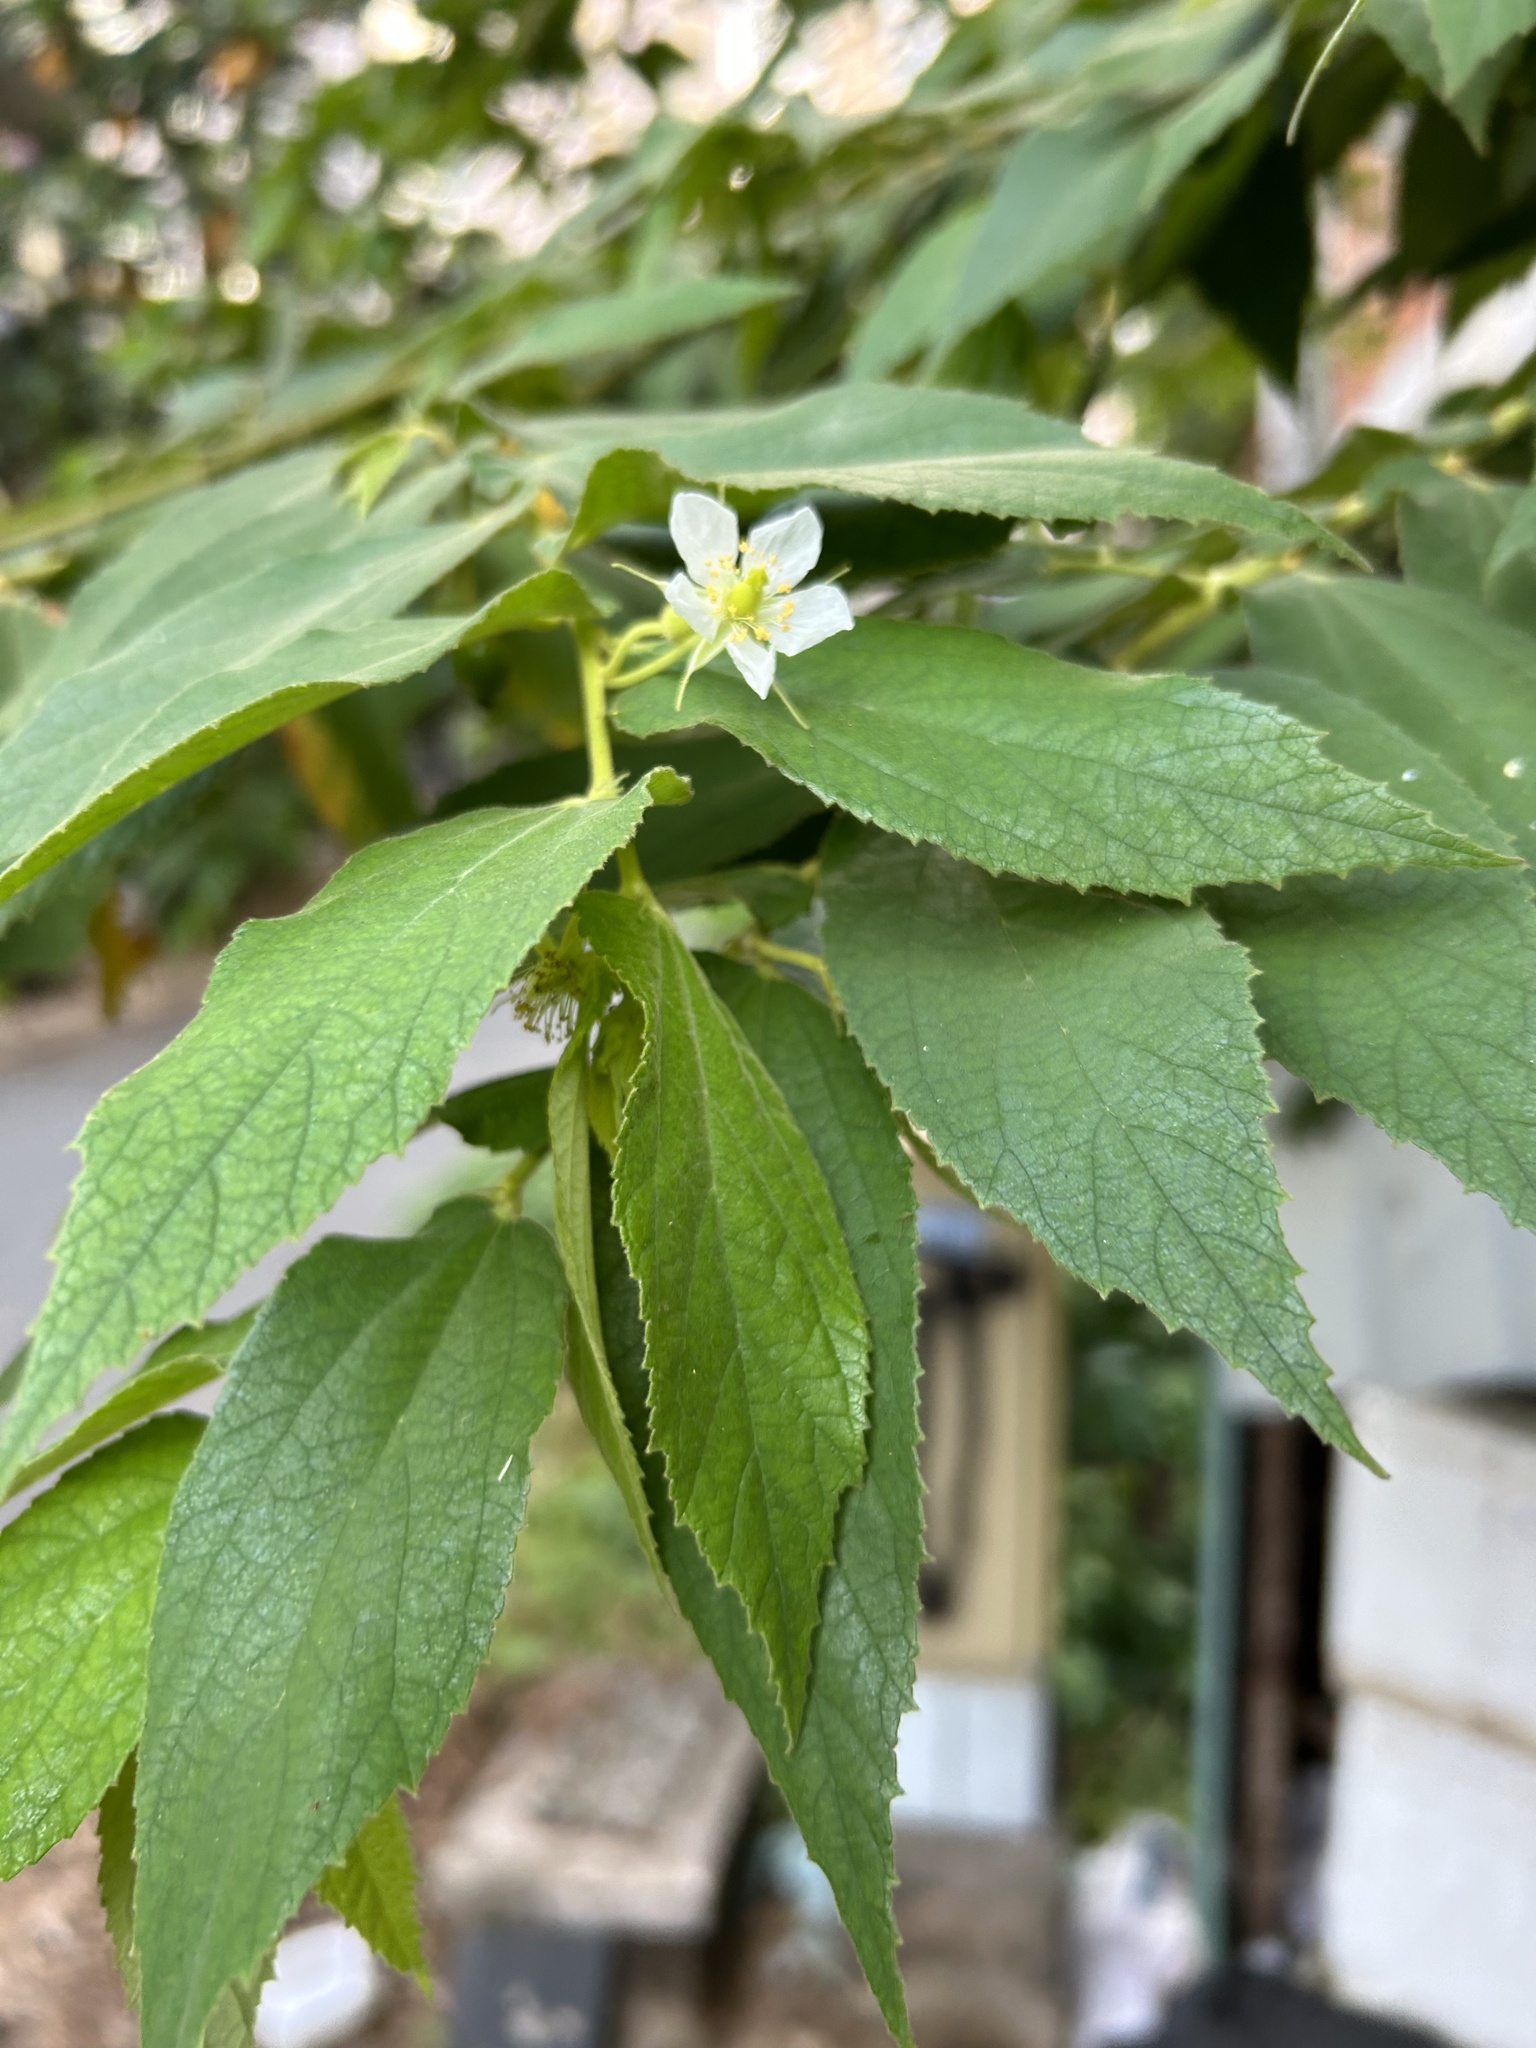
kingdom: Plantae
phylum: Tracheophyta
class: Magnoliopsida
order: Malvales
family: Muntingiaceae
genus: Muntingia
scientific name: Muntingia calabura
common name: Strawberrytree
